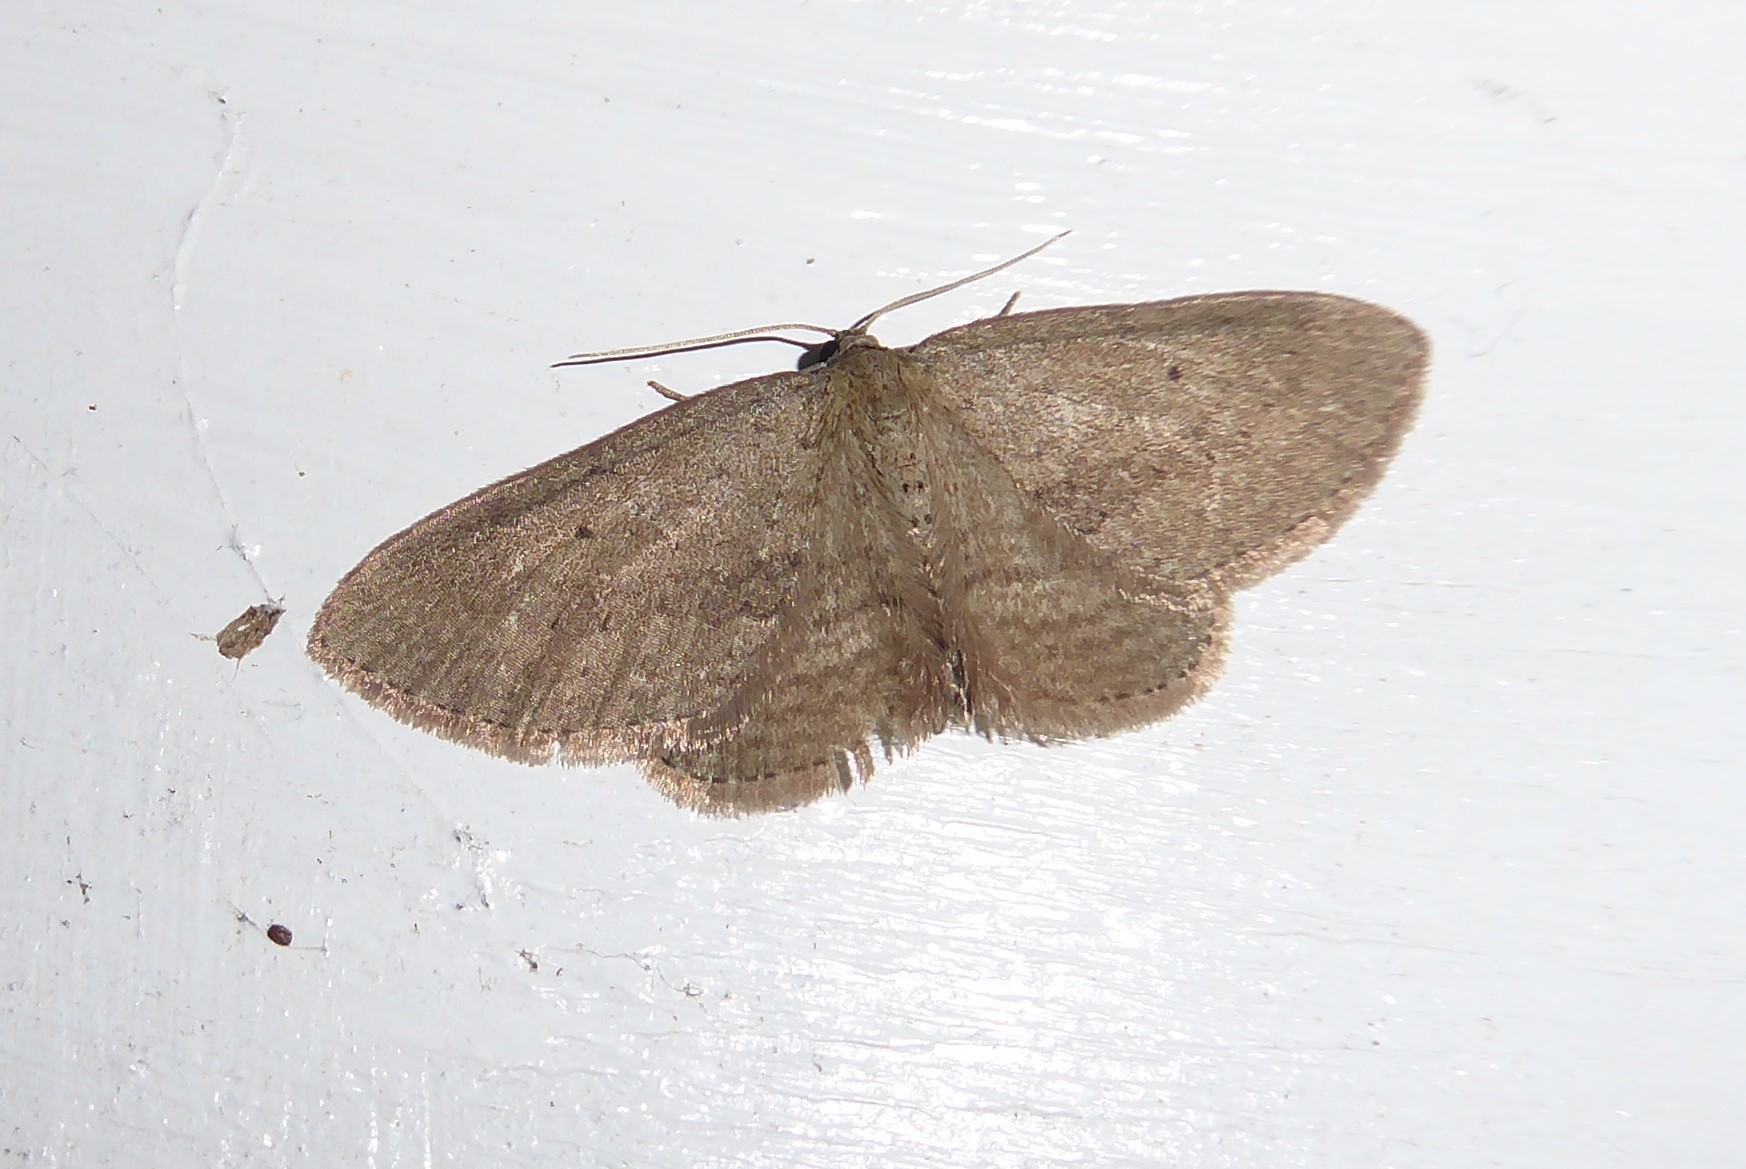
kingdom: Animalia
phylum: Arthropoda
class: Insecta
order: Lepidoptera
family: Geometridae
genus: Poecilasthena
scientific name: Poecilasthena schistaria
